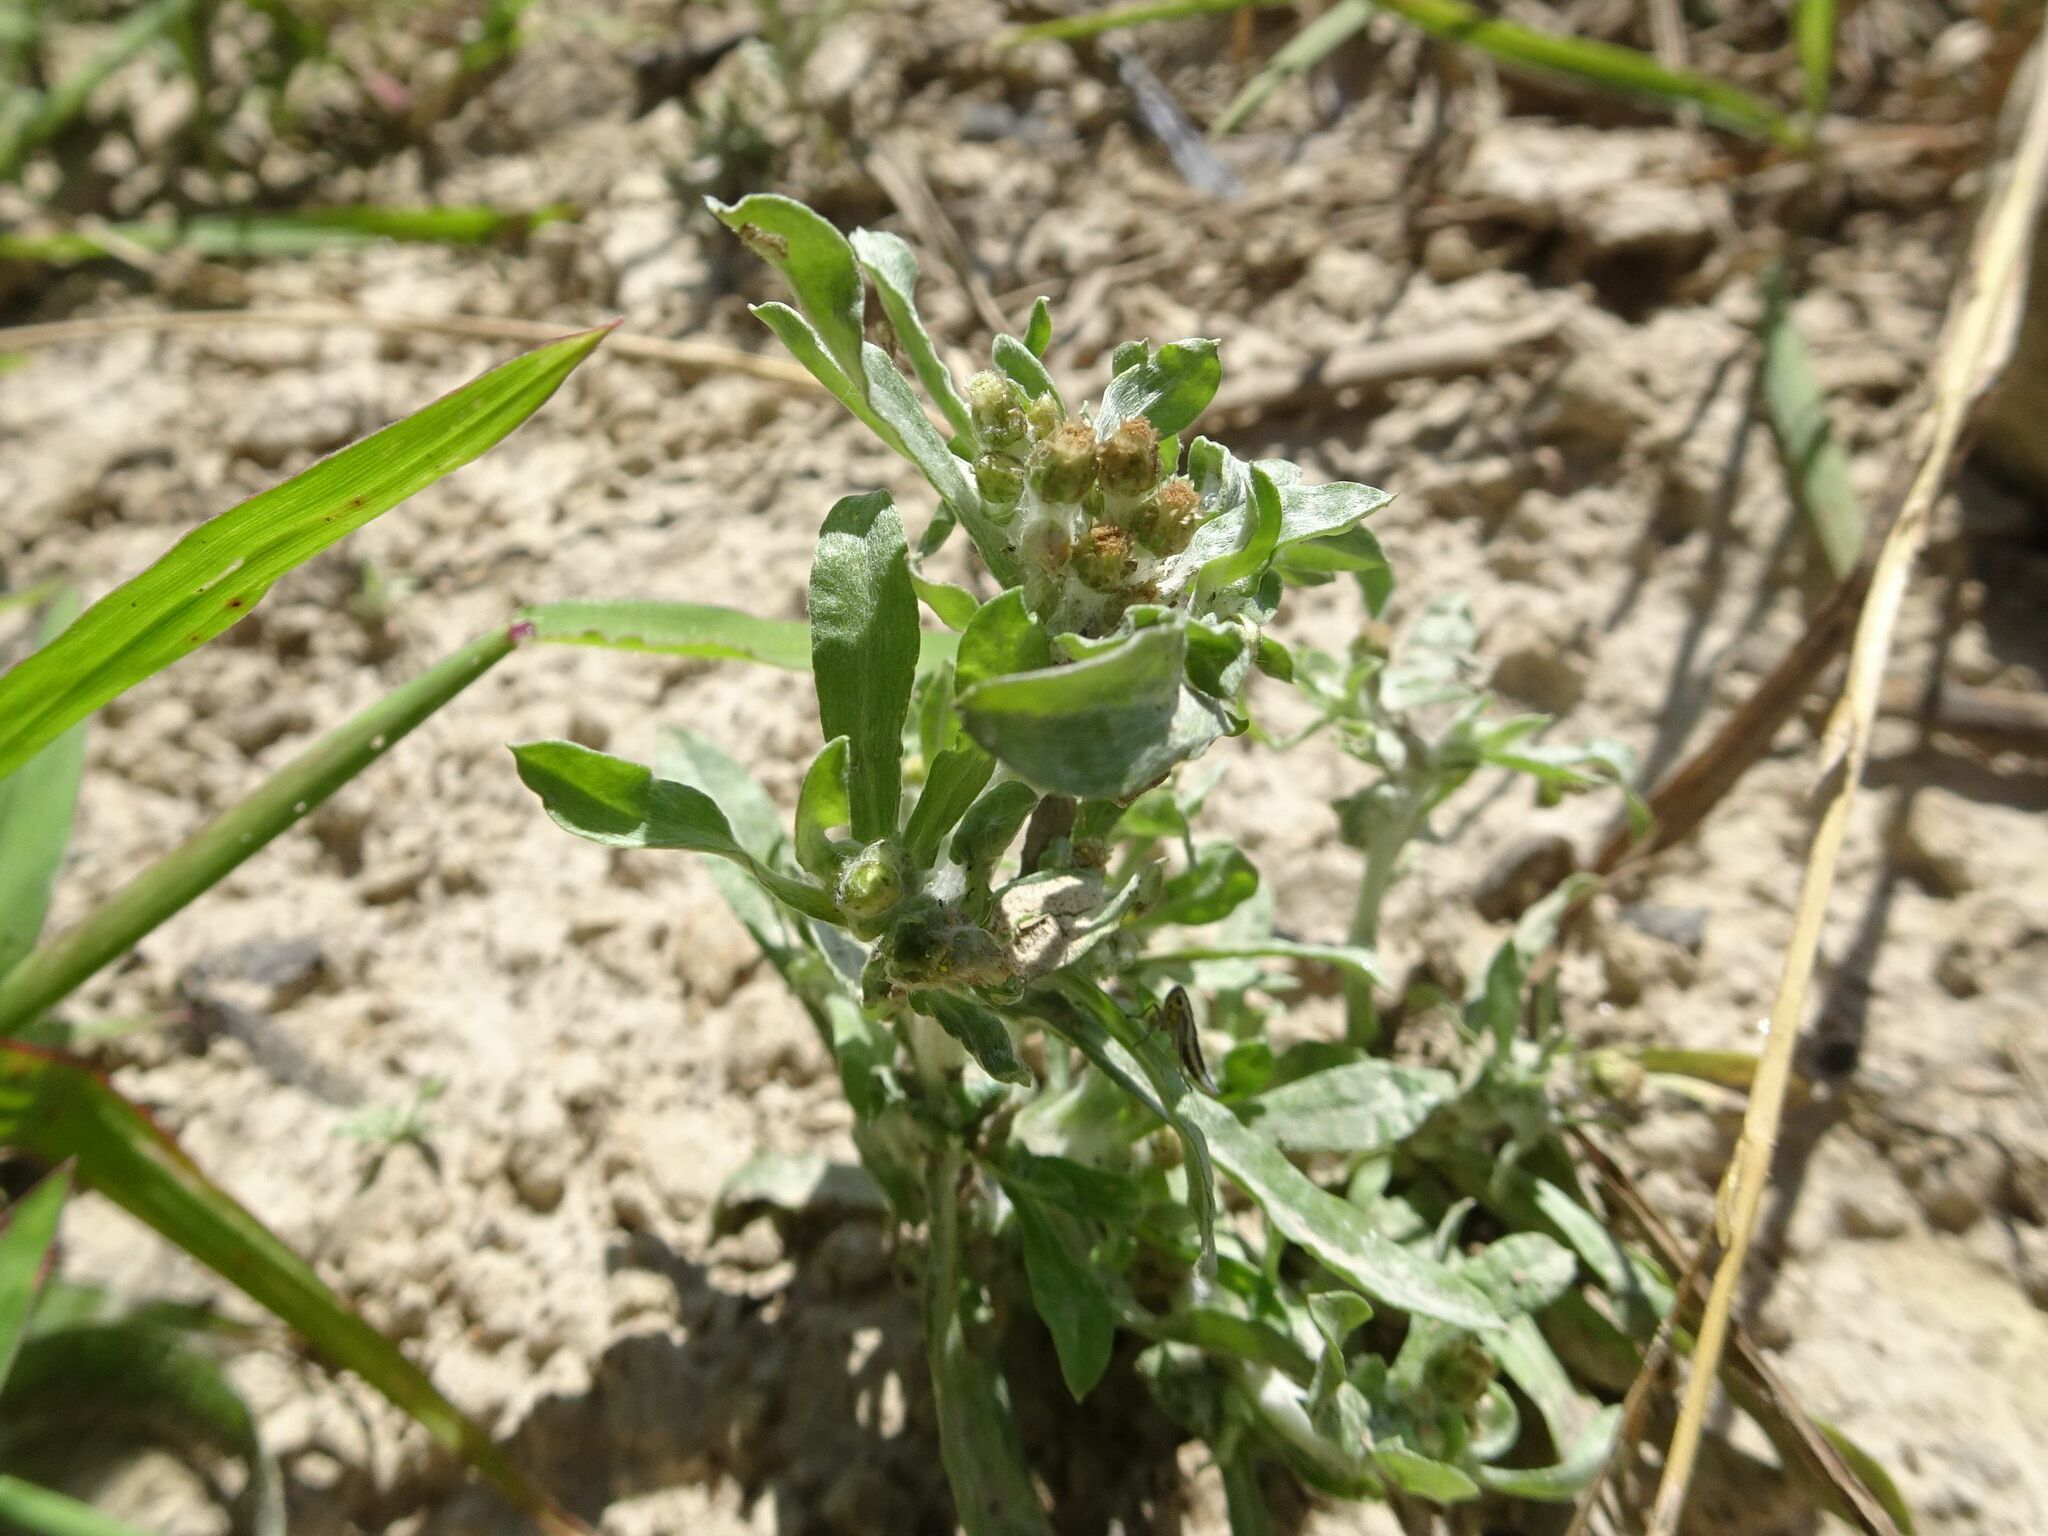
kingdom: Plantae
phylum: Tracheophyta
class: Magnoliopsida
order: Asterales
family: Asteraceae
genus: Gnaphalium
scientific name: Gnaphalium uliginosum
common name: Marsh cudweed
